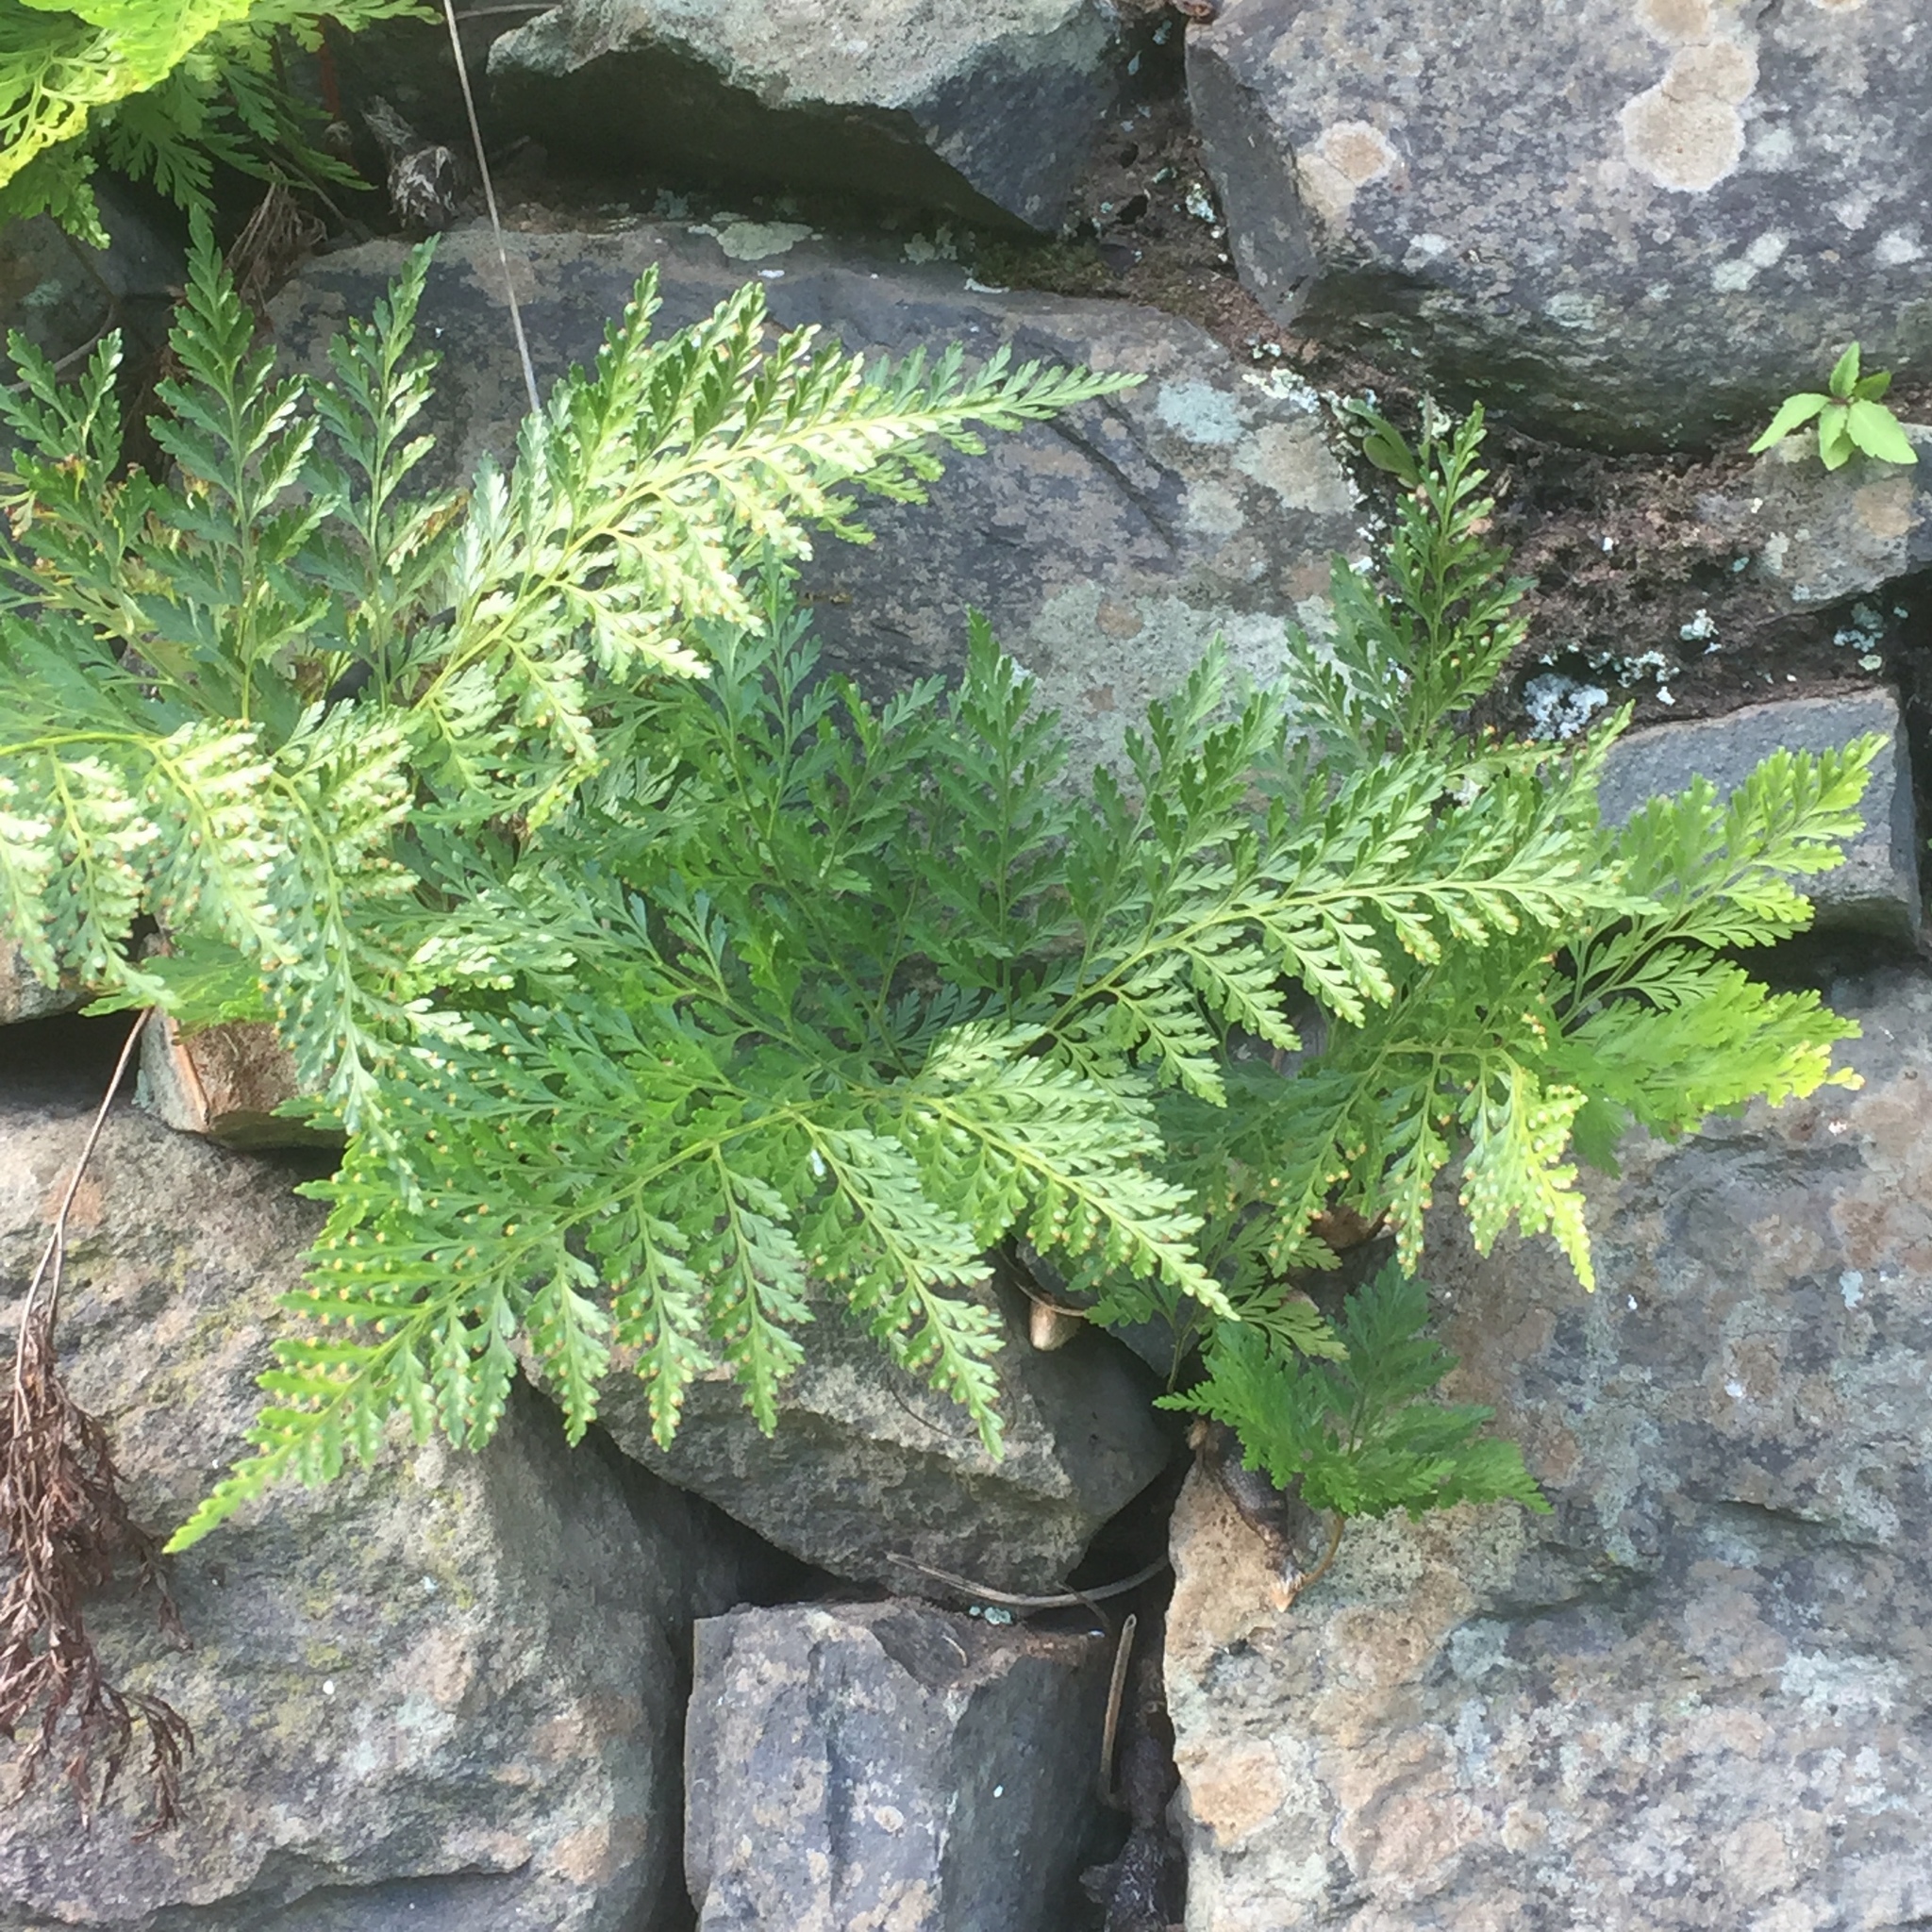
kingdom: Plantae
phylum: Tracheophyta
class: Polypodiopsida
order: Polypodiales
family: Davalliaceae
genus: Davallia
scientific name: Davallia canariensis
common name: Hare's-foot fern
